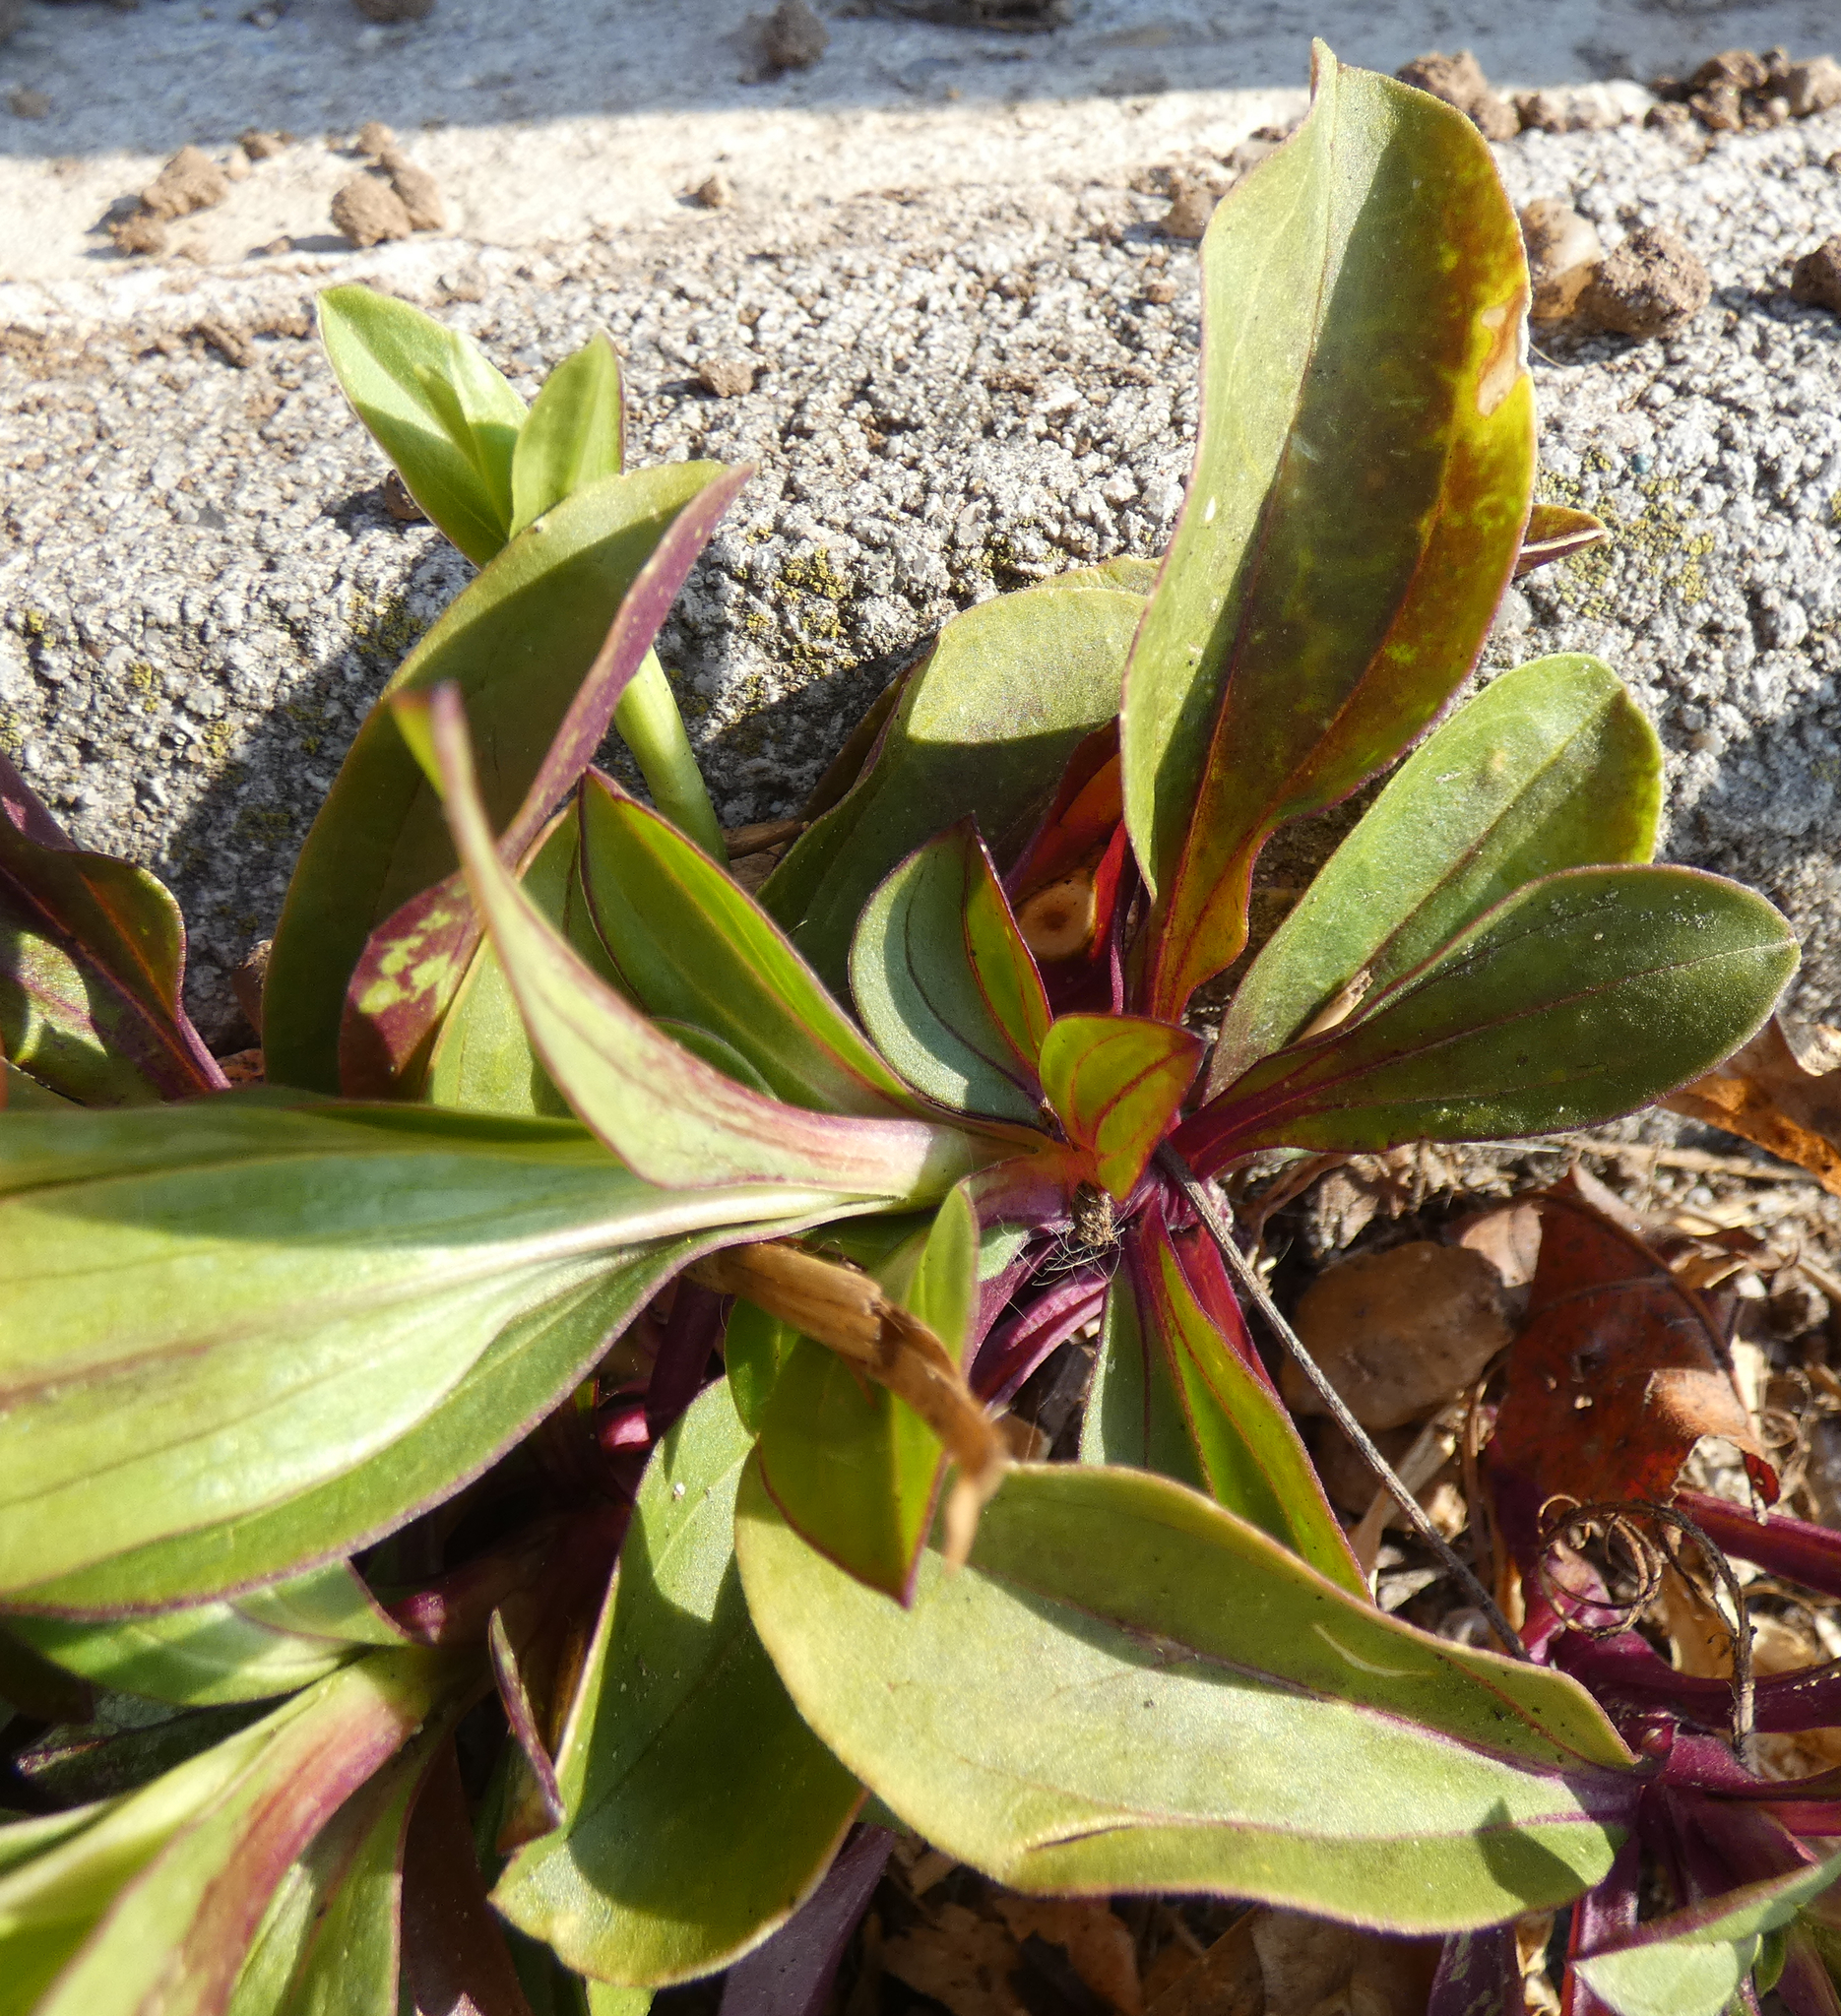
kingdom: Plantae
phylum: Tracheophyta
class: Magnoliopsida
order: Caryophyllales
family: Caryophyllaceae
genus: Saponaria
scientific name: Saponaria officinalis
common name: Soapwort
